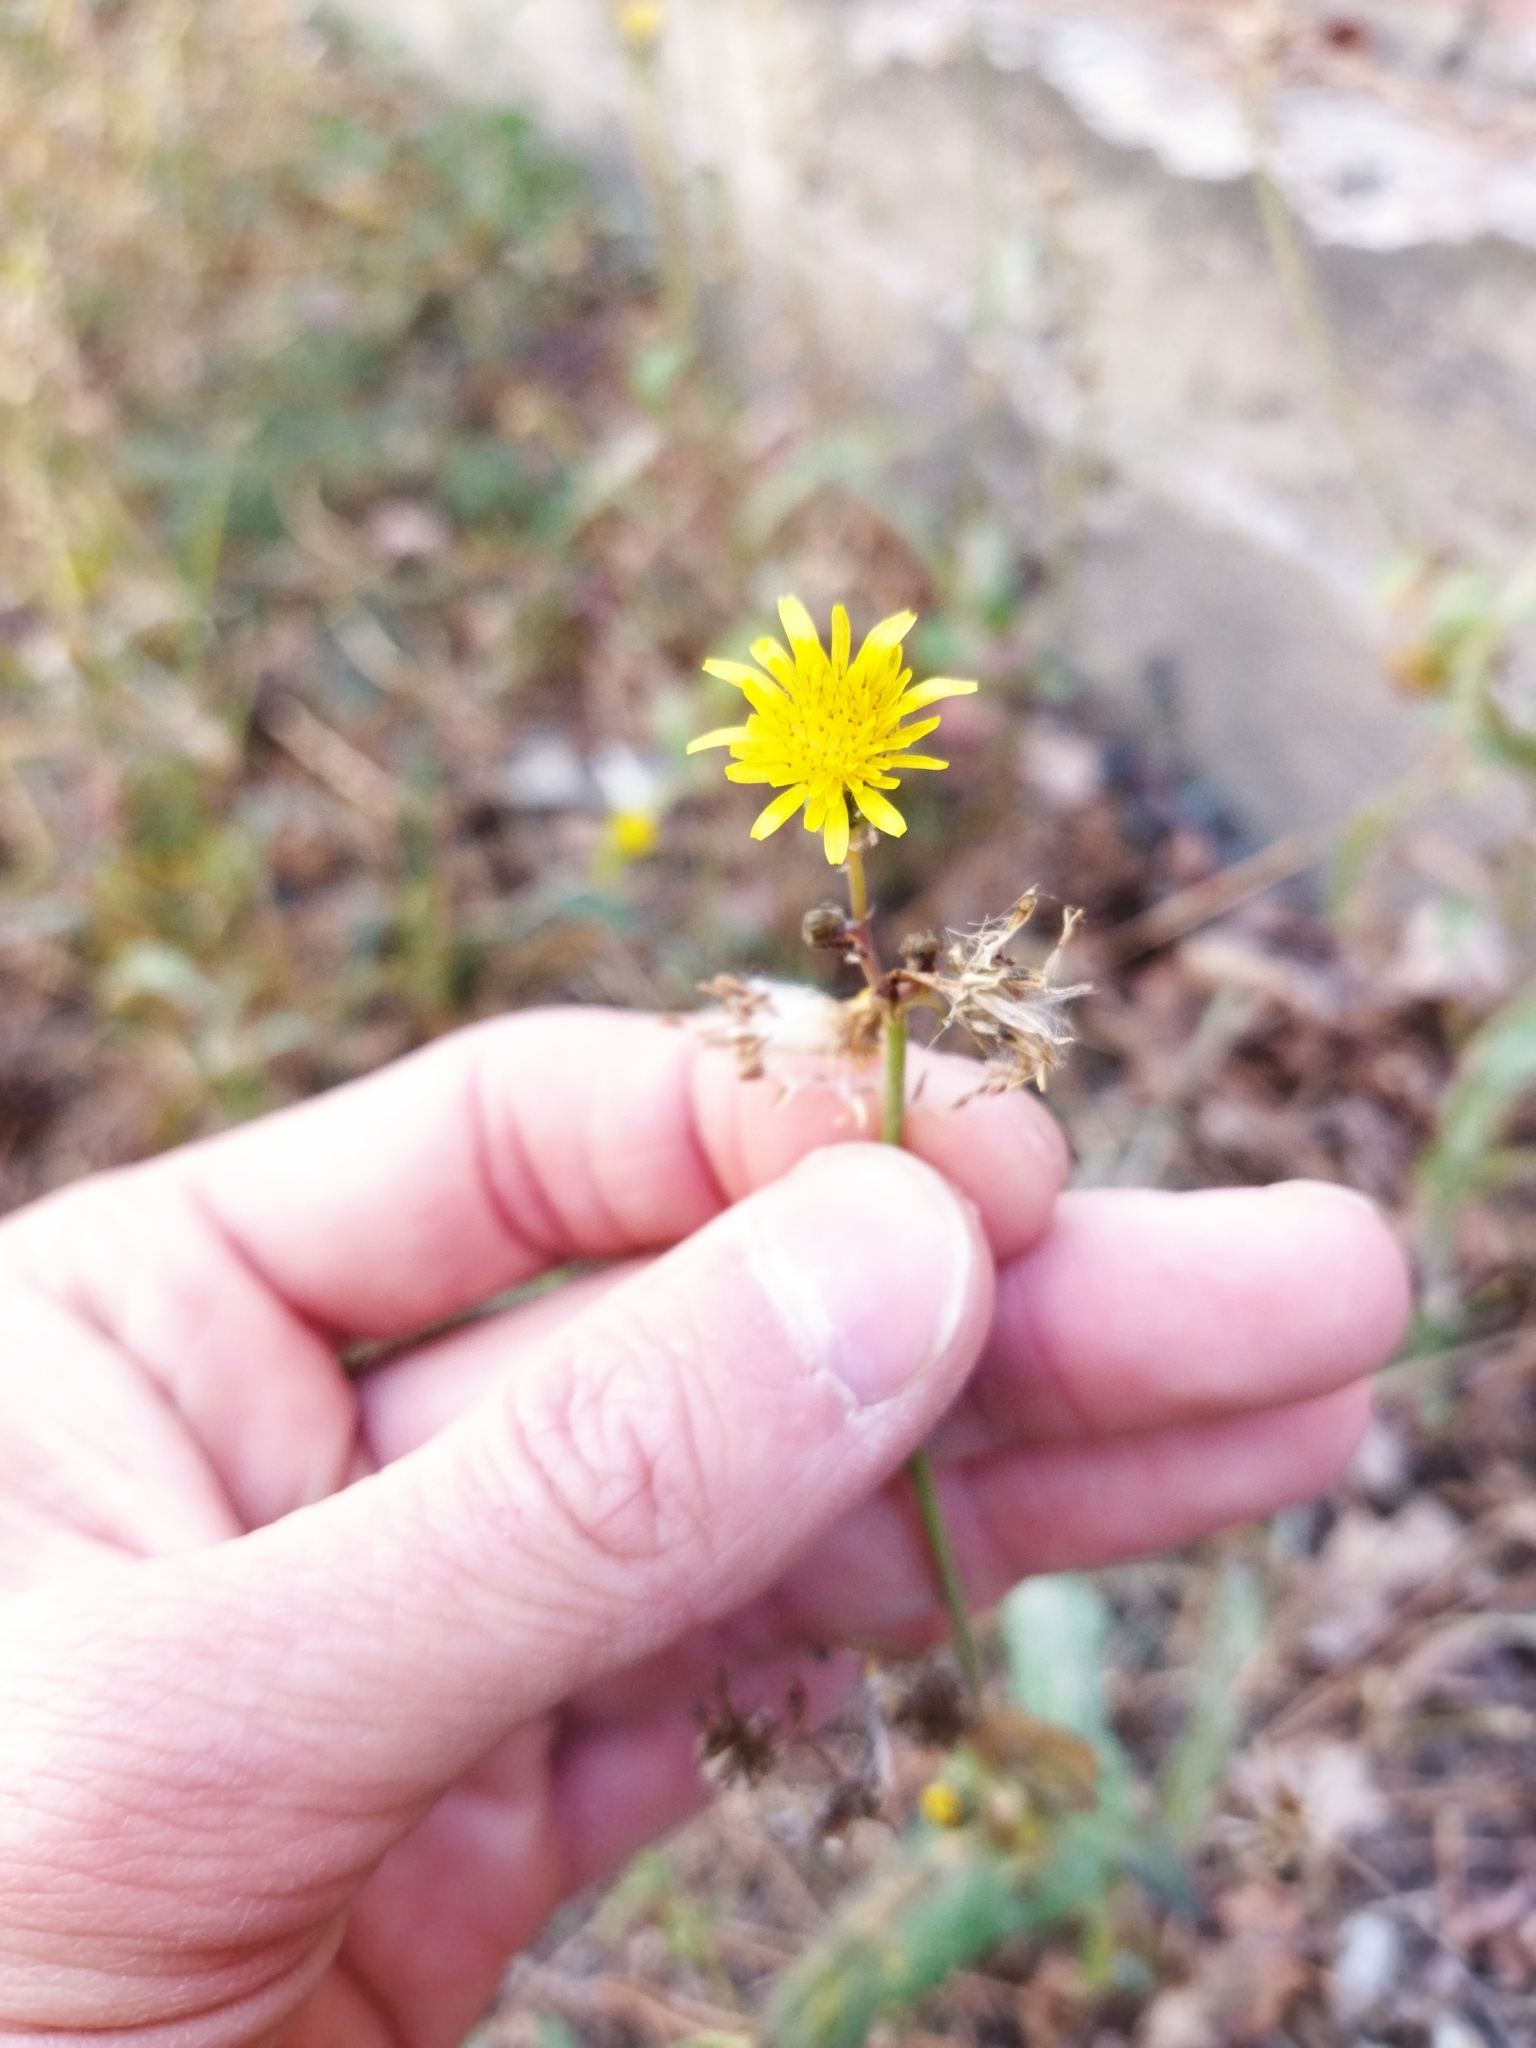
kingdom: Plantae
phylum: Tracheophyta
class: Magnoliopsida
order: Asterales
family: Asteraceae
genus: Sonchus
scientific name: Sonchus oleraceus
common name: Common sowthistle
